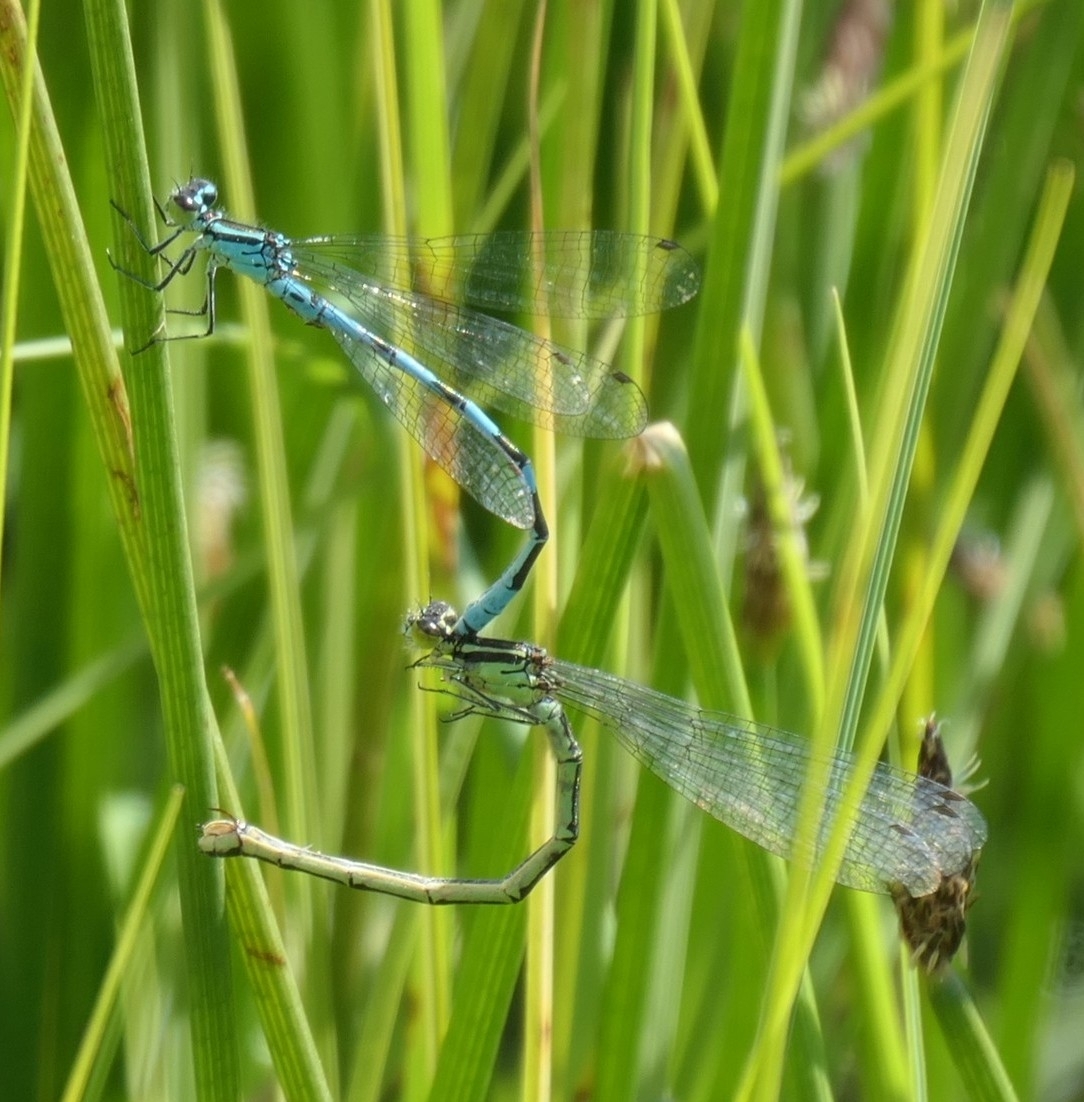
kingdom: Animalia
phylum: Arthropoda
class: Insecta
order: Odonata
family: Coenagrionidae
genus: Coenagrion
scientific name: Coenagrion hastulatum
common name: Spearhead bluet
